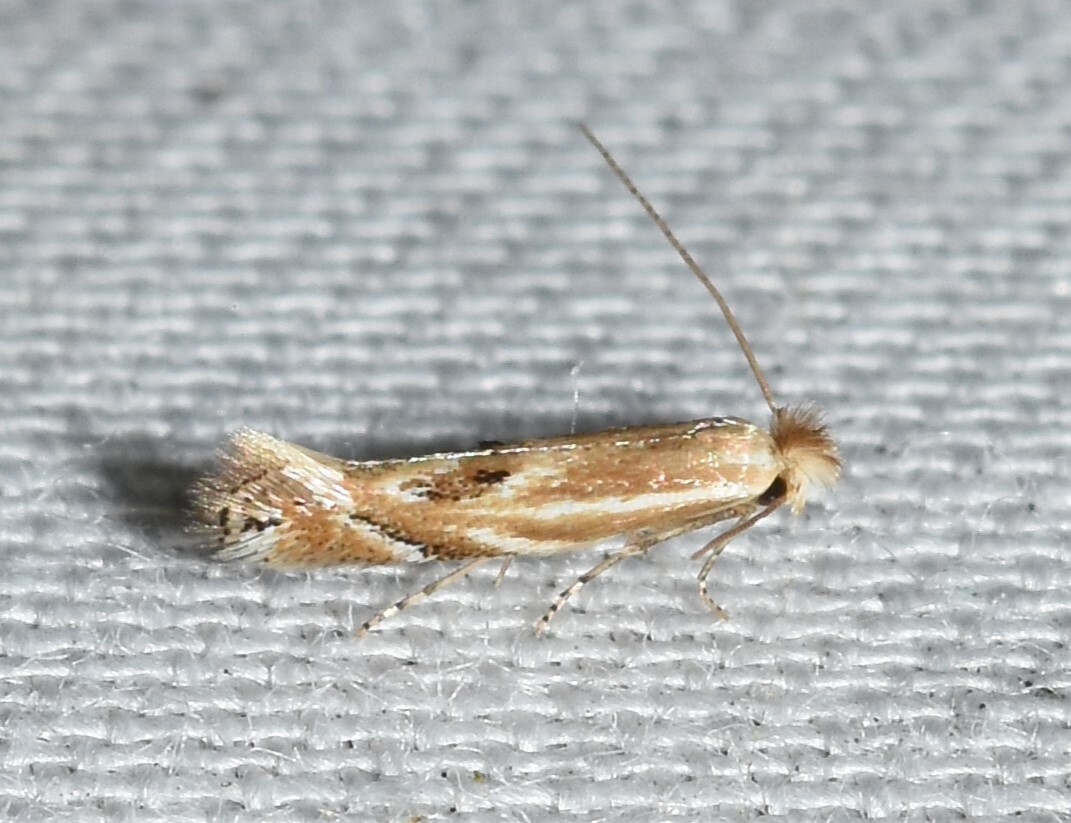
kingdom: Animalia
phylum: Arthropoda
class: Insecta
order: Lepidoptera
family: Bucculatricidae
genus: Bucculatrix
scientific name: Bucculatrix angustata
